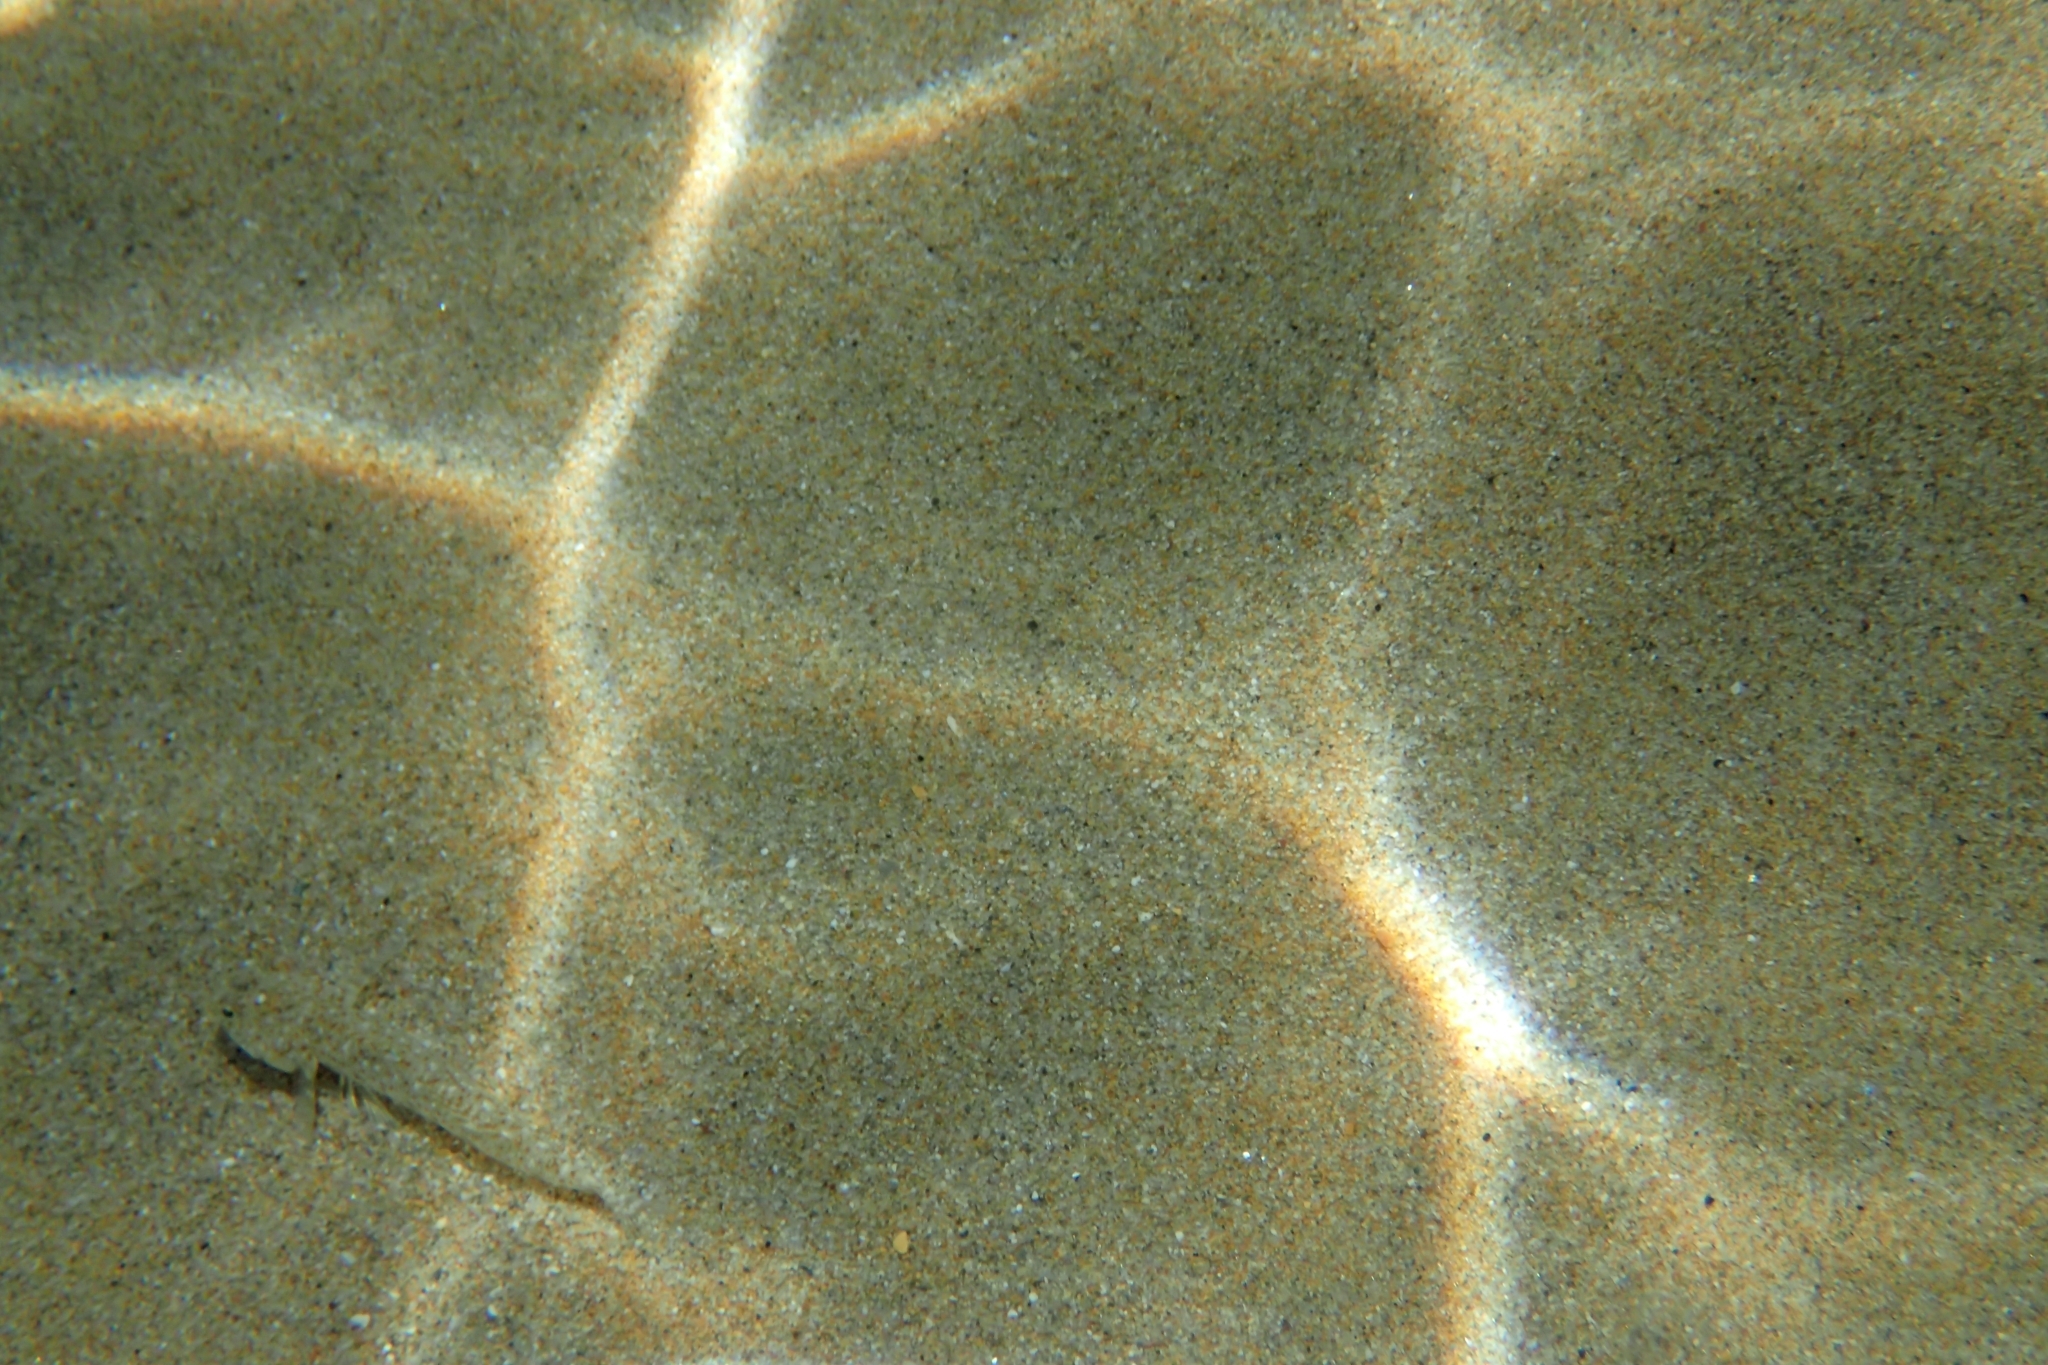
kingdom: Animalia
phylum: Chordata
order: Perciformes
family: Gobiidae
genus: Pomatoschistus
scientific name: Pomatoschistus marmoratus
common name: Marbled goby
